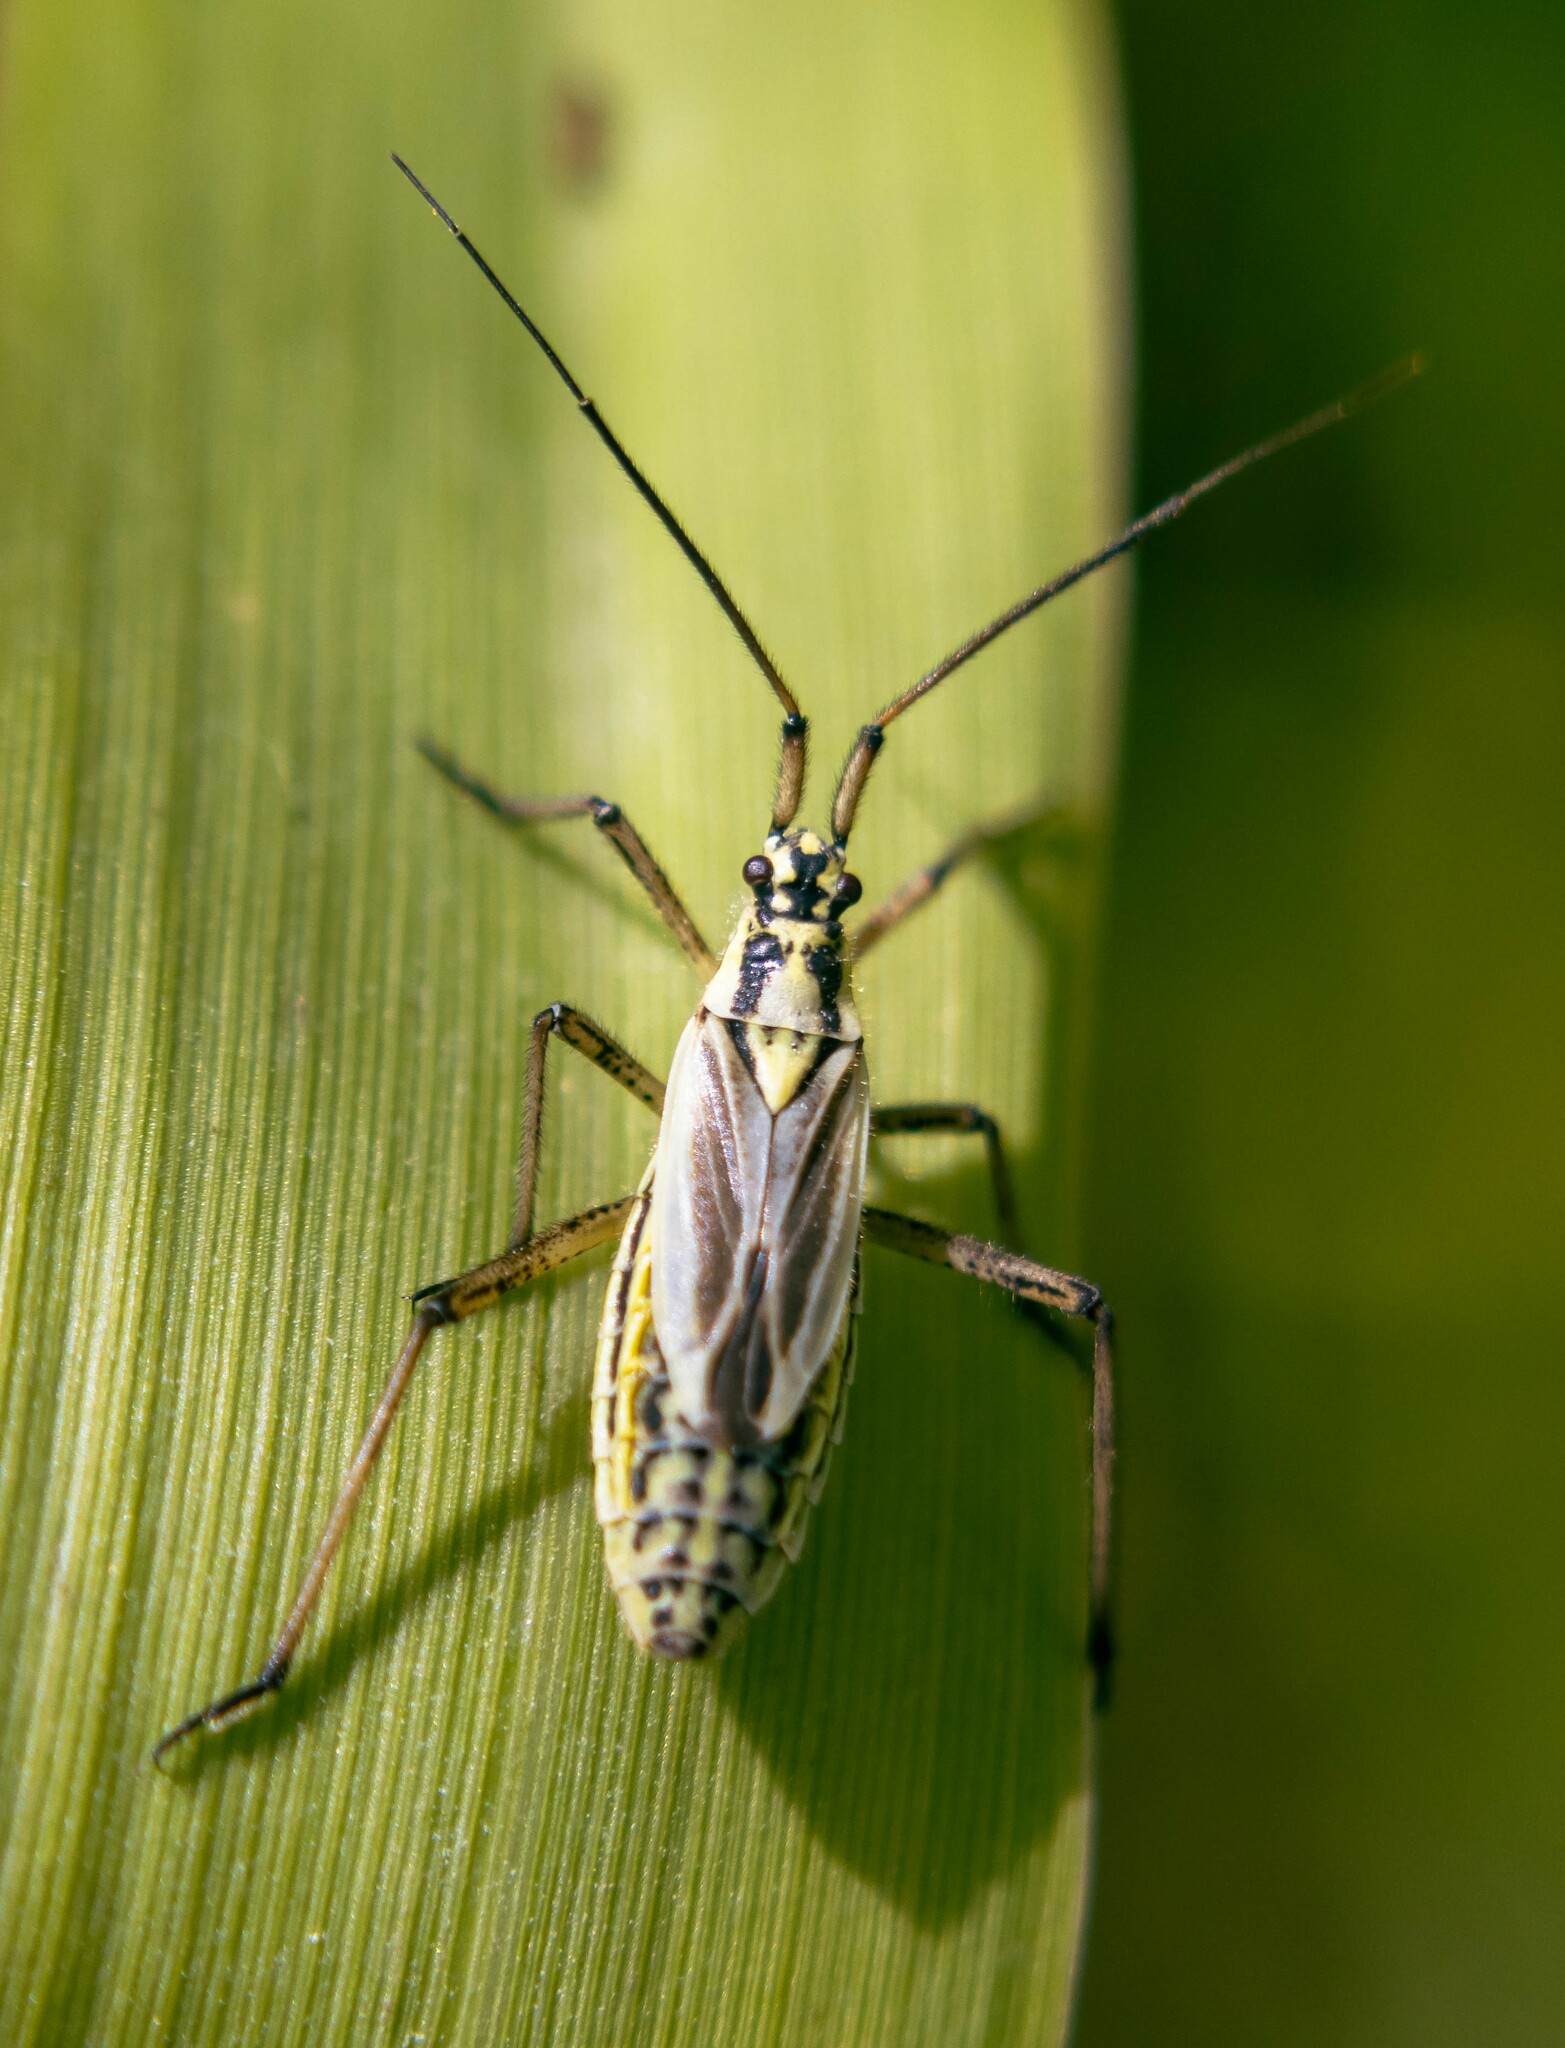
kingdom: Animalia
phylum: Arthropoda
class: Insecta
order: Hemiptera
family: Miridae
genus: Leptopterna
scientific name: Leptopterna dolabrata
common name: Meadow plant bug
